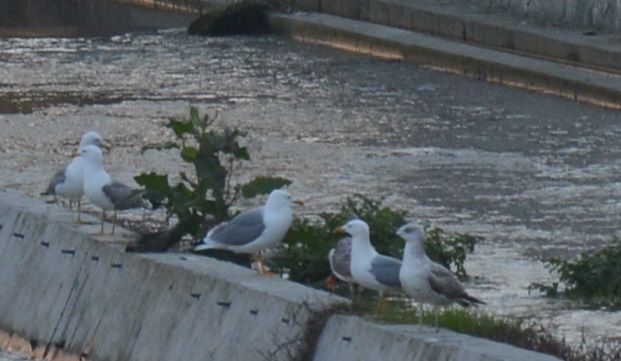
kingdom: Animalia
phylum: Chordata
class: Aves
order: Charadriiformes
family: Laridae
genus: Larus
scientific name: Larus michahellis
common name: Yellow-legged gull
